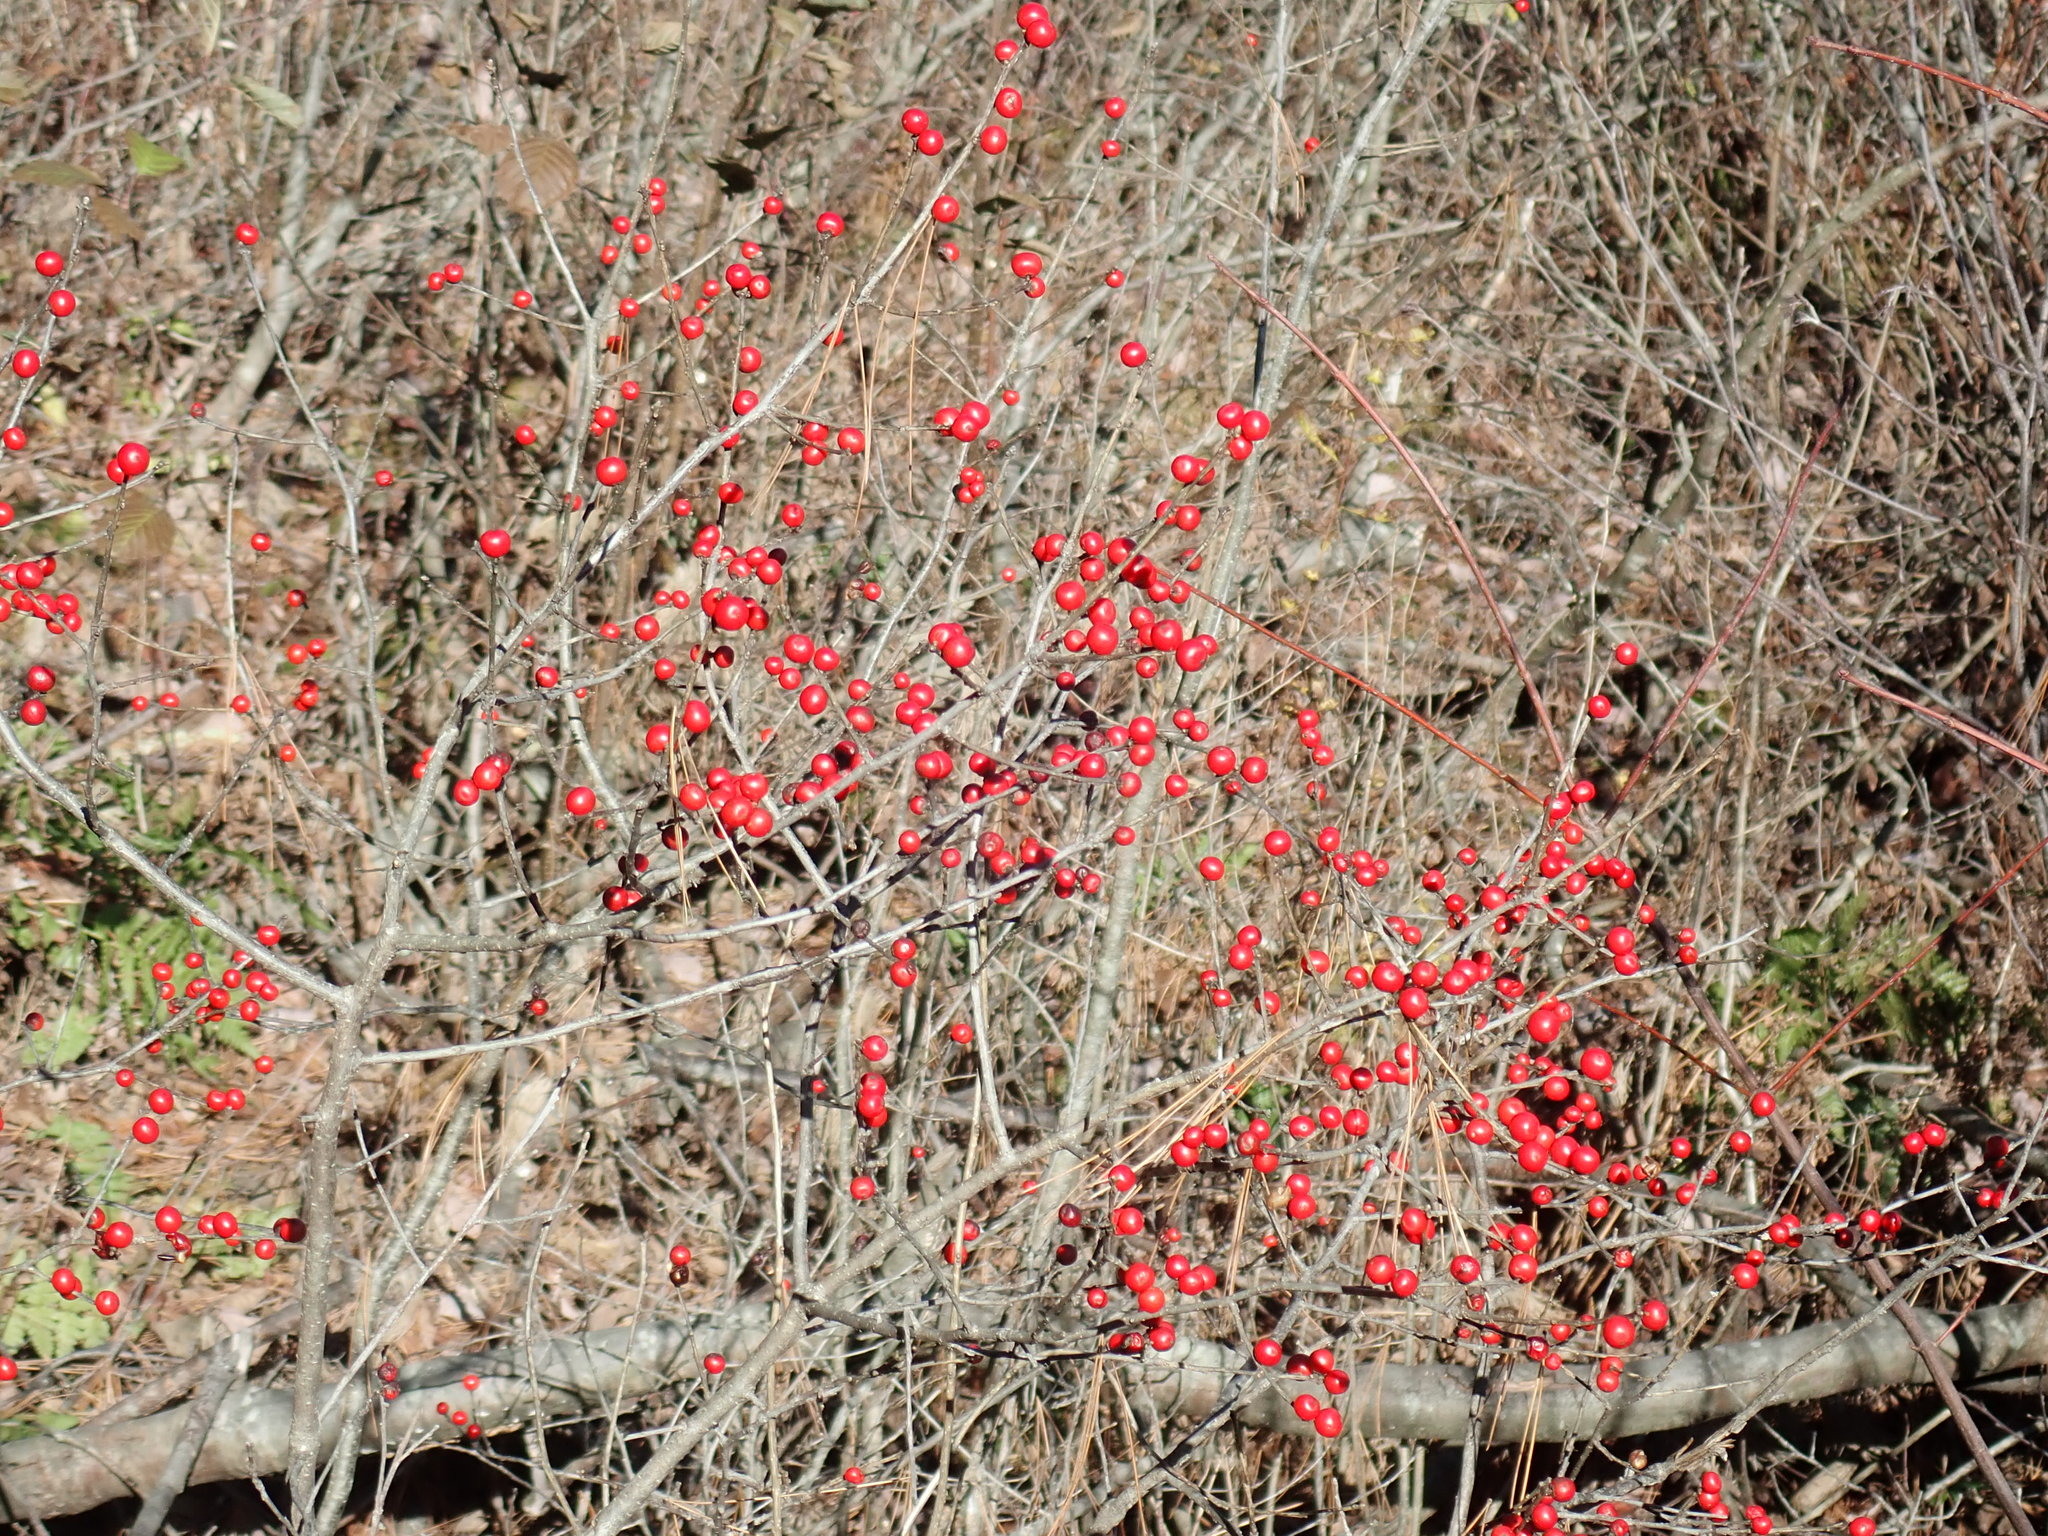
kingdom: Plantae
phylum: Tracheophyta
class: Magnoliopsida
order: Aquifoliales
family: Aquifoliaceae
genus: Ilex
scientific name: Ilex verticillata
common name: Virginia winterberry
